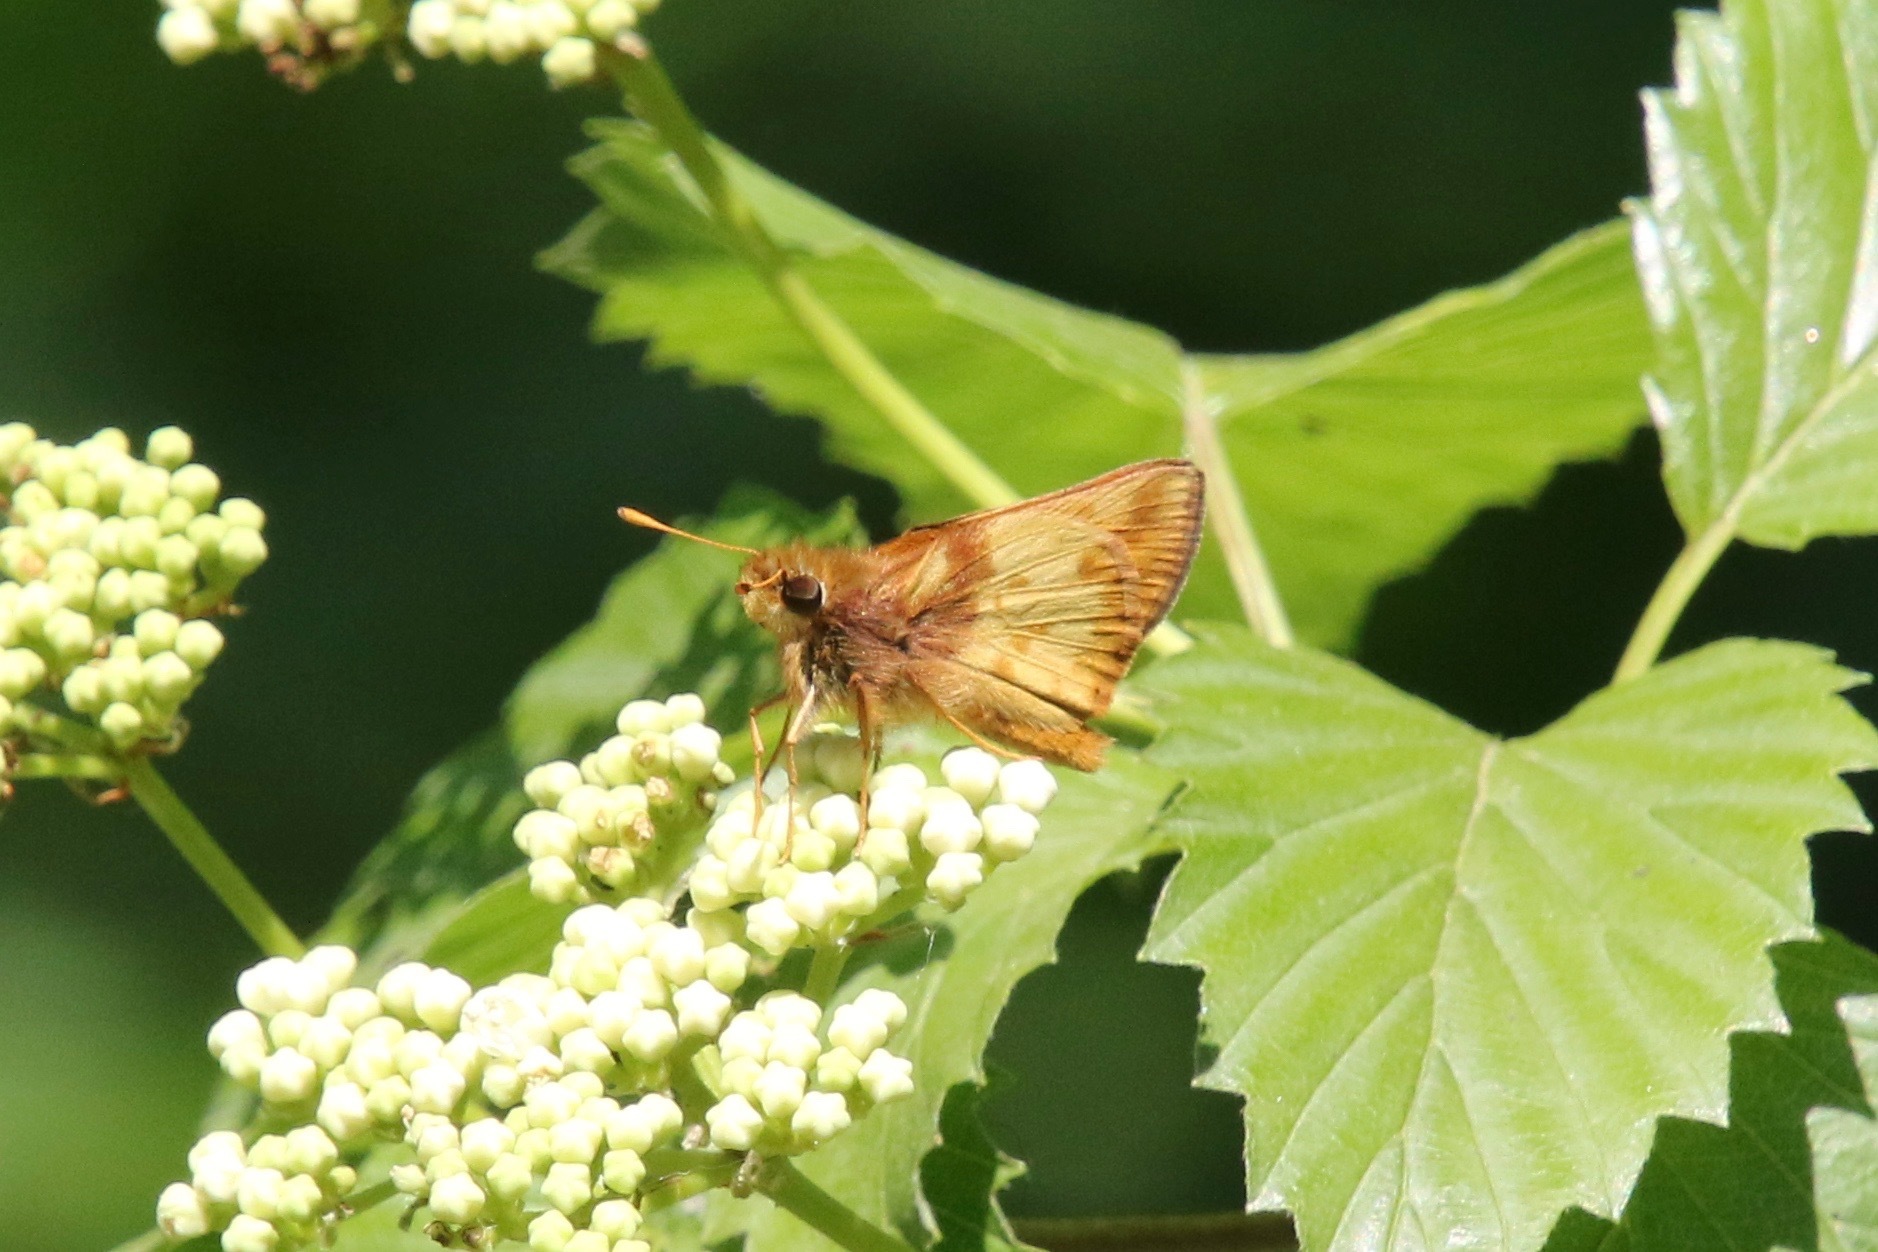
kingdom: Animalia
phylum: Arthropoda
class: Insecta
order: Lepidoptera
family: Hesperiidae
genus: Lon
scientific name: Lon zabulon
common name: Zabulon skipper
